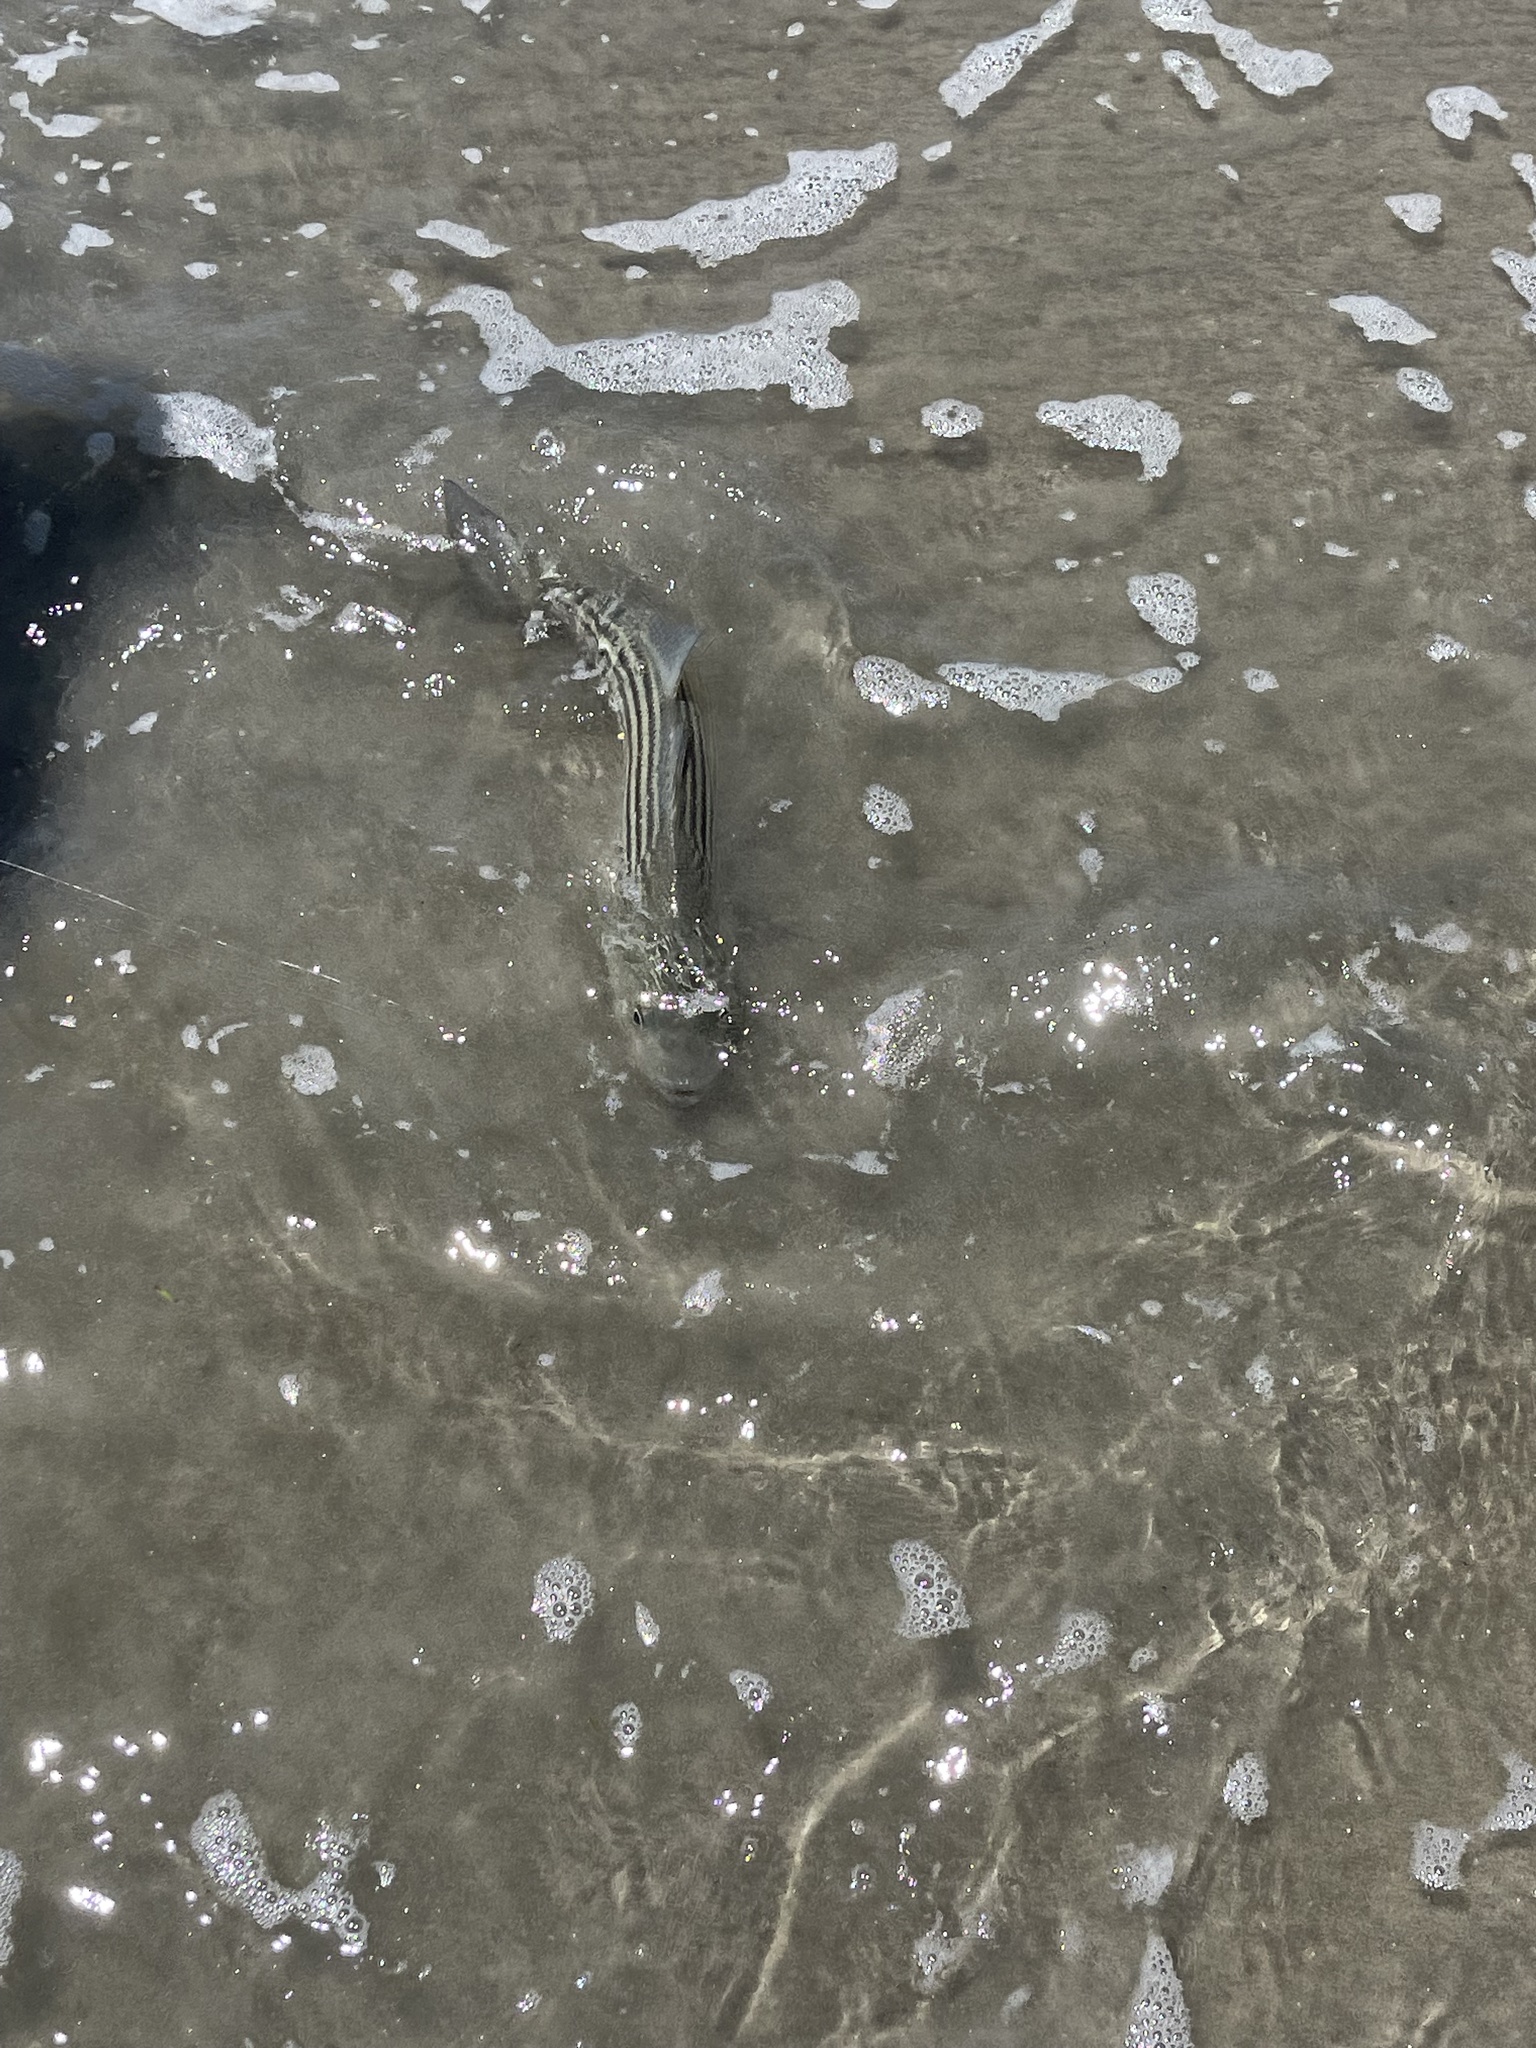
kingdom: Animalia
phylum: Chordata
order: Perciformes
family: Moronidae
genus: Morone
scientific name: Morone saxatilis
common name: Striped bass
